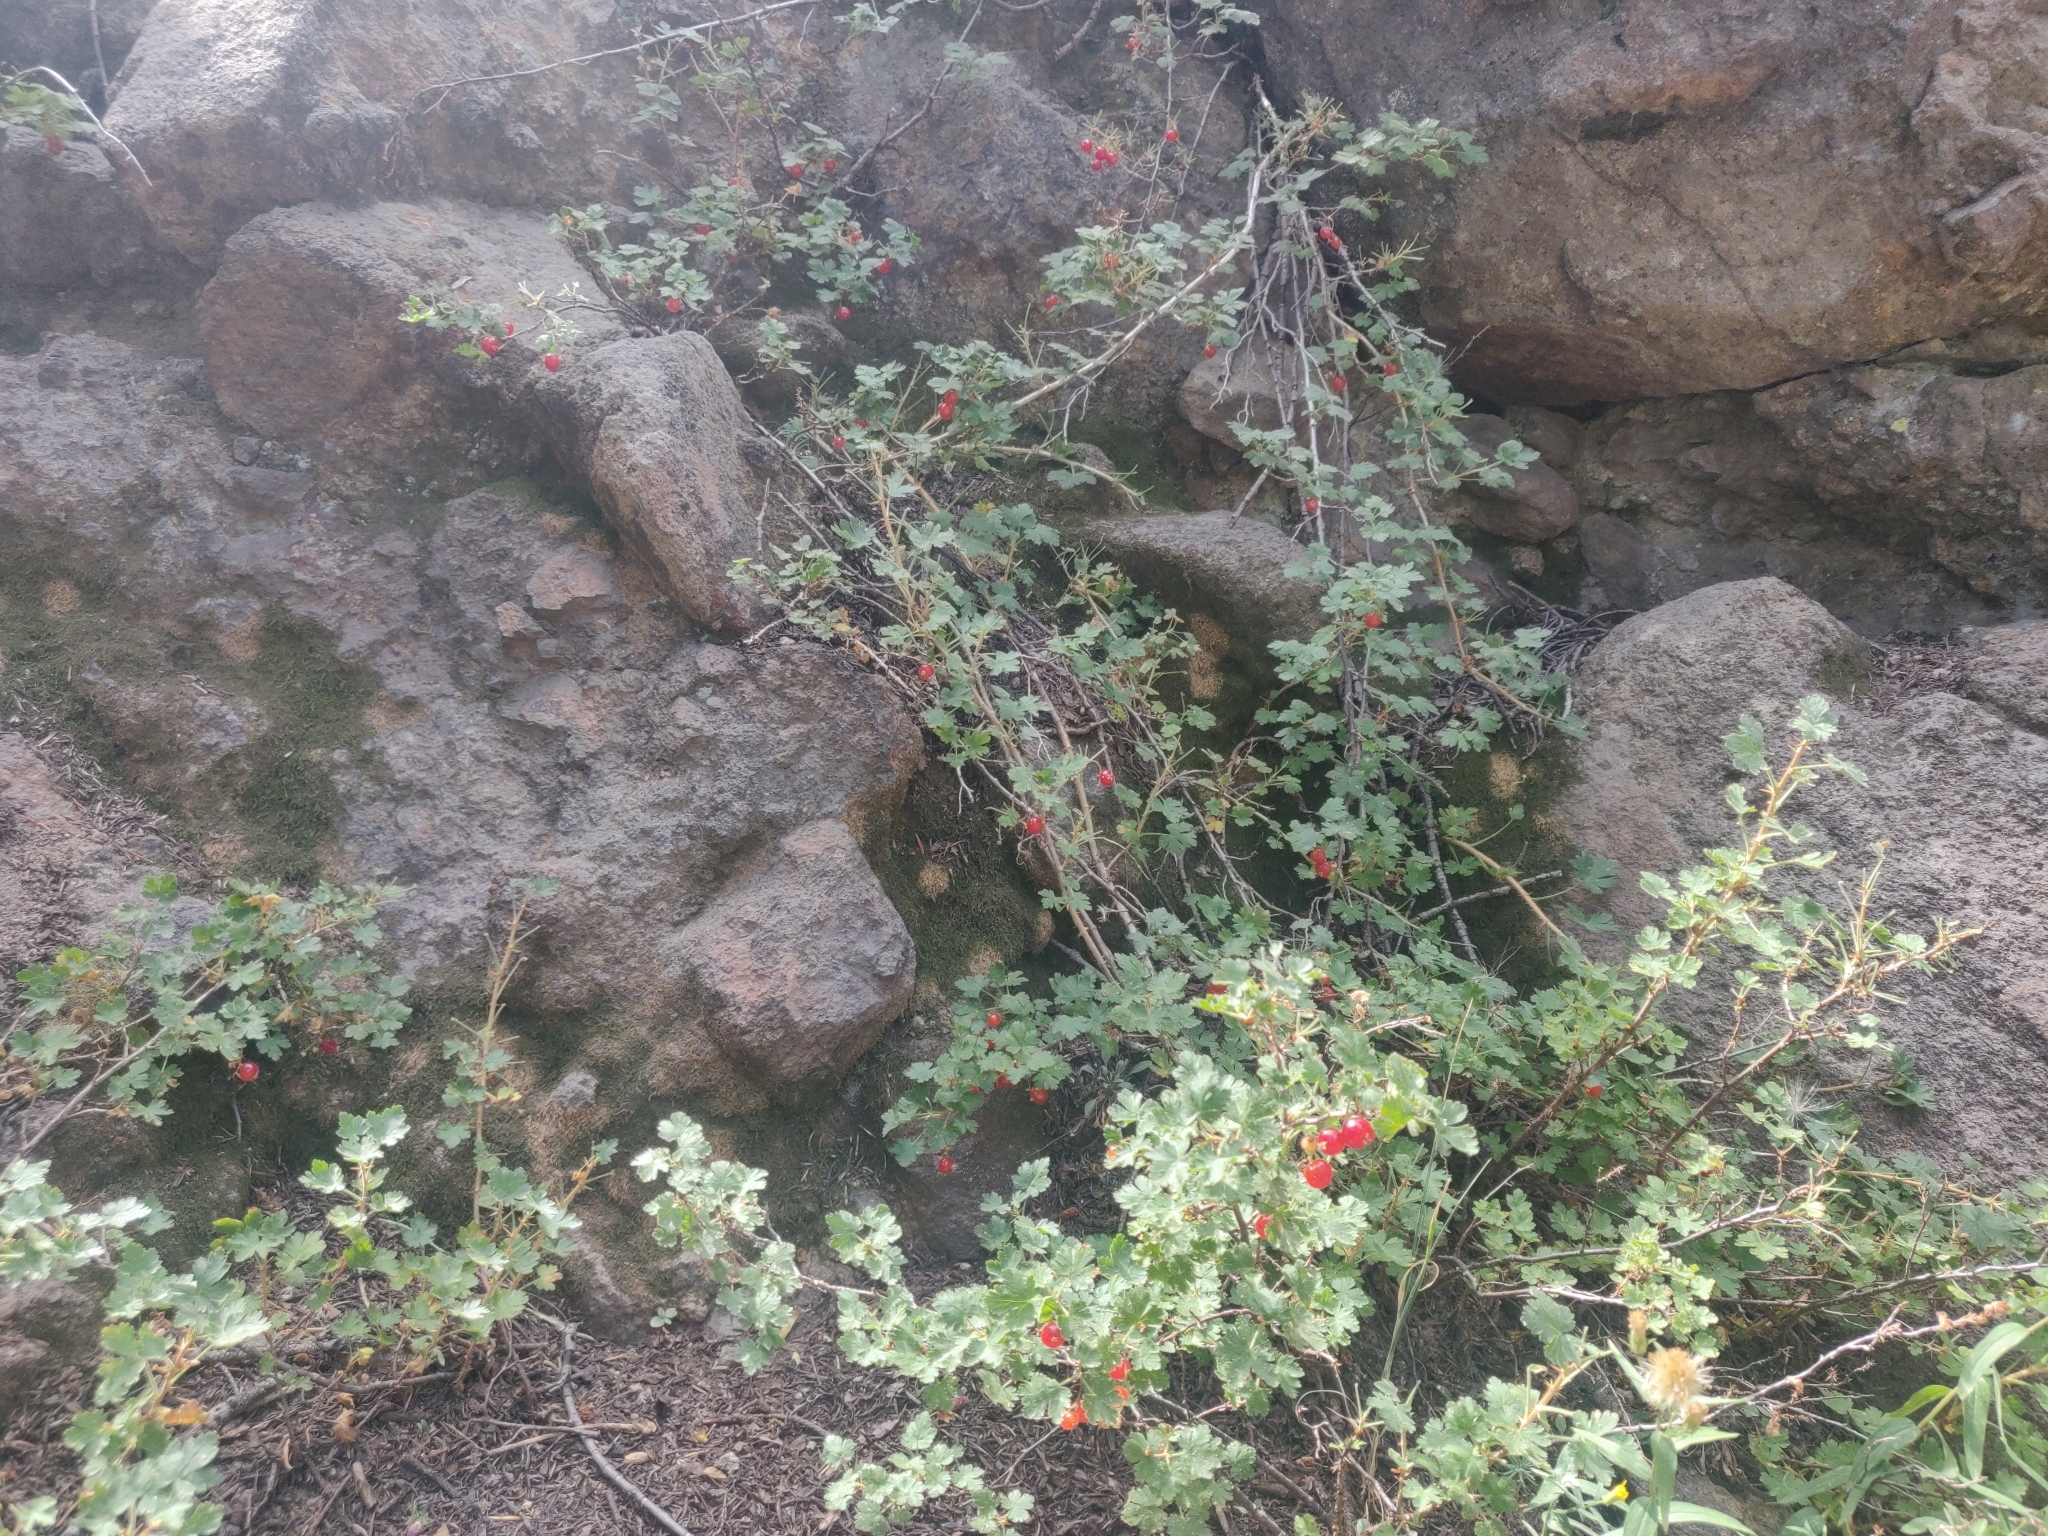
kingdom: Plantae
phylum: Tracheophyta
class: Magnoliopsida
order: Saxifragales
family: Grossulariaceae
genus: Ribes
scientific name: Ribes montigenum
